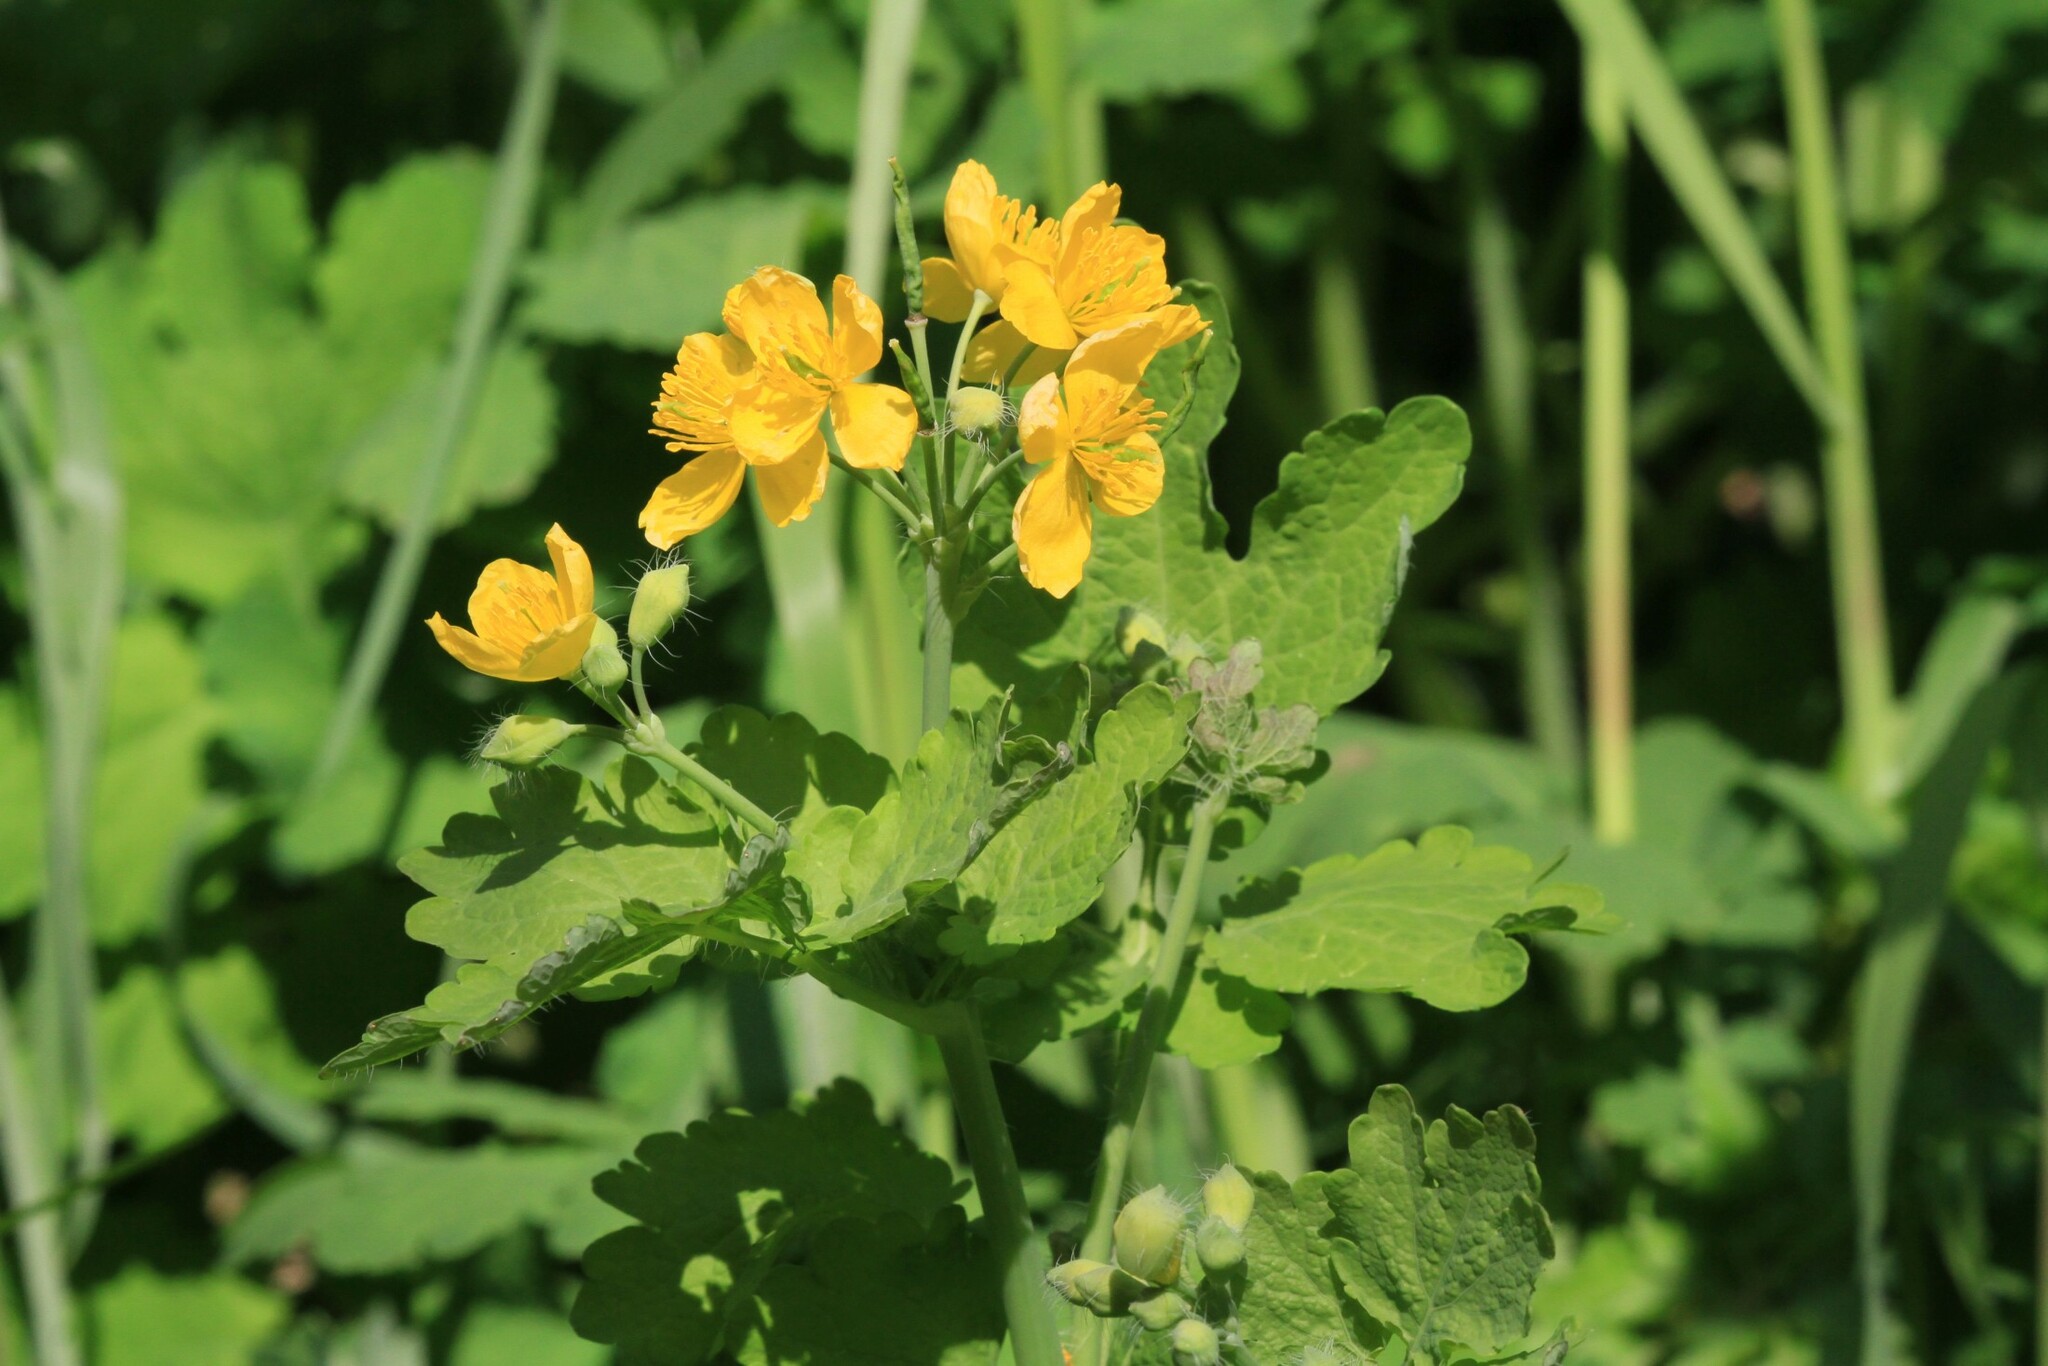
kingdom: Plantae
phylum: Tracheophyta
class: Magnoliopsida
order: Ranunculales
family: Papaveraceae
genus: Chelidonium
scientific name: Chelidonium majus
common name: Greater celandine
